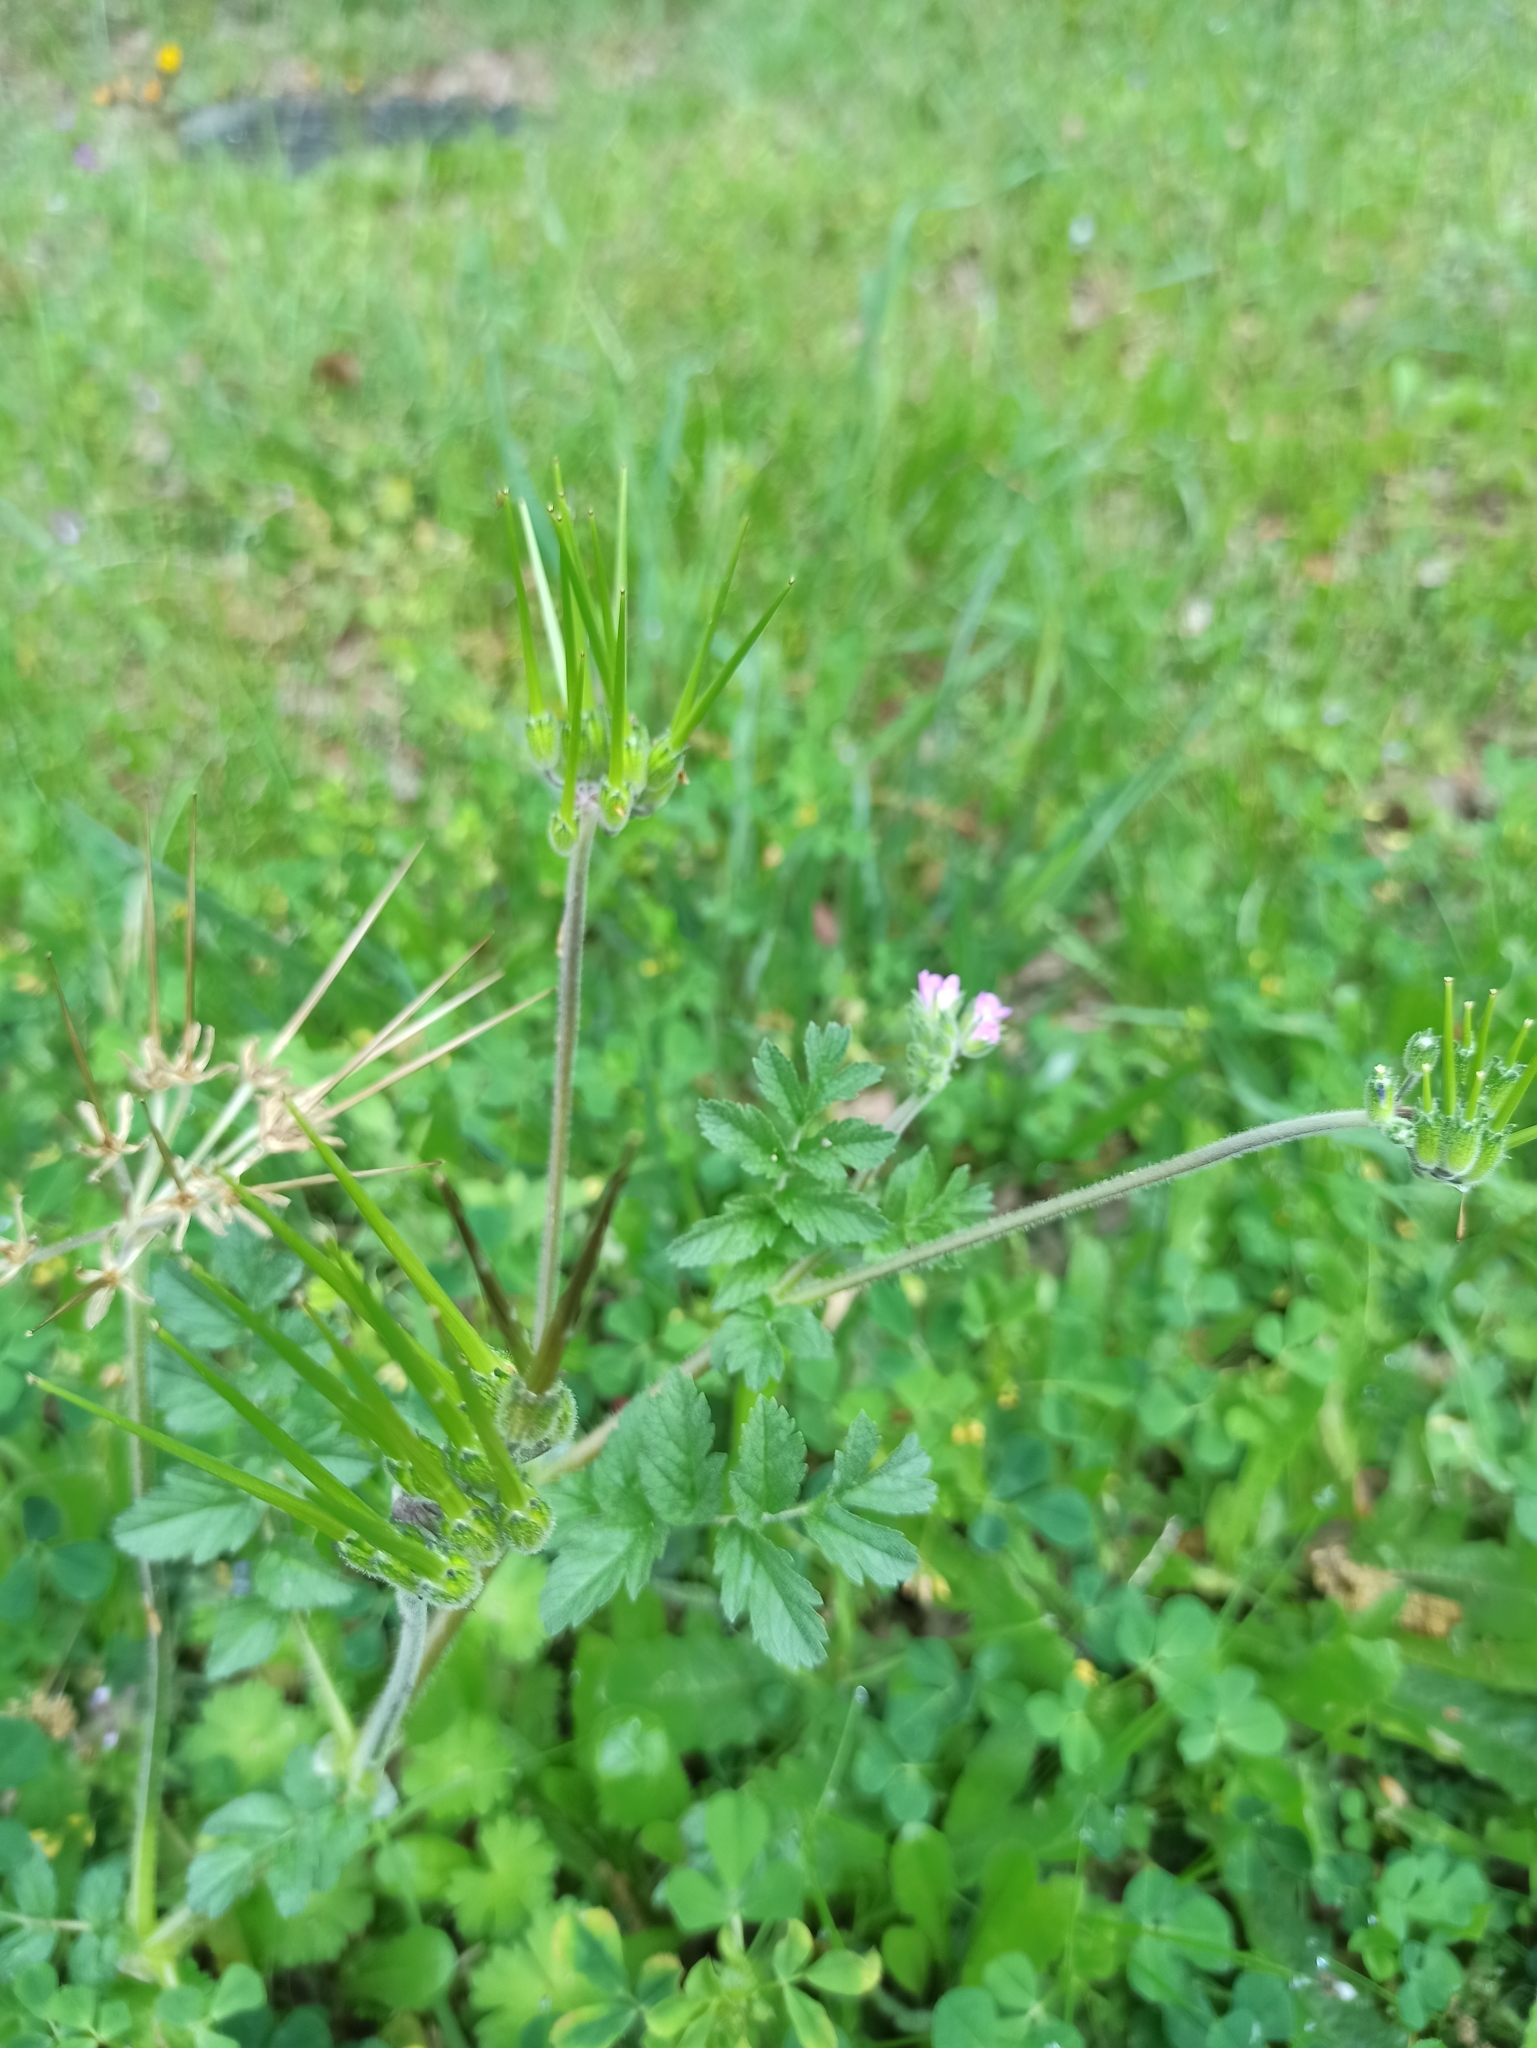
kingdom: Plantae
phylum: Tracheophyta
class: Magnoliopsida
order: Geraniales
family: Geraniaceae
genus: Erodium
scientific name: Erodium moschatum
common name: Musk stork's-bill
